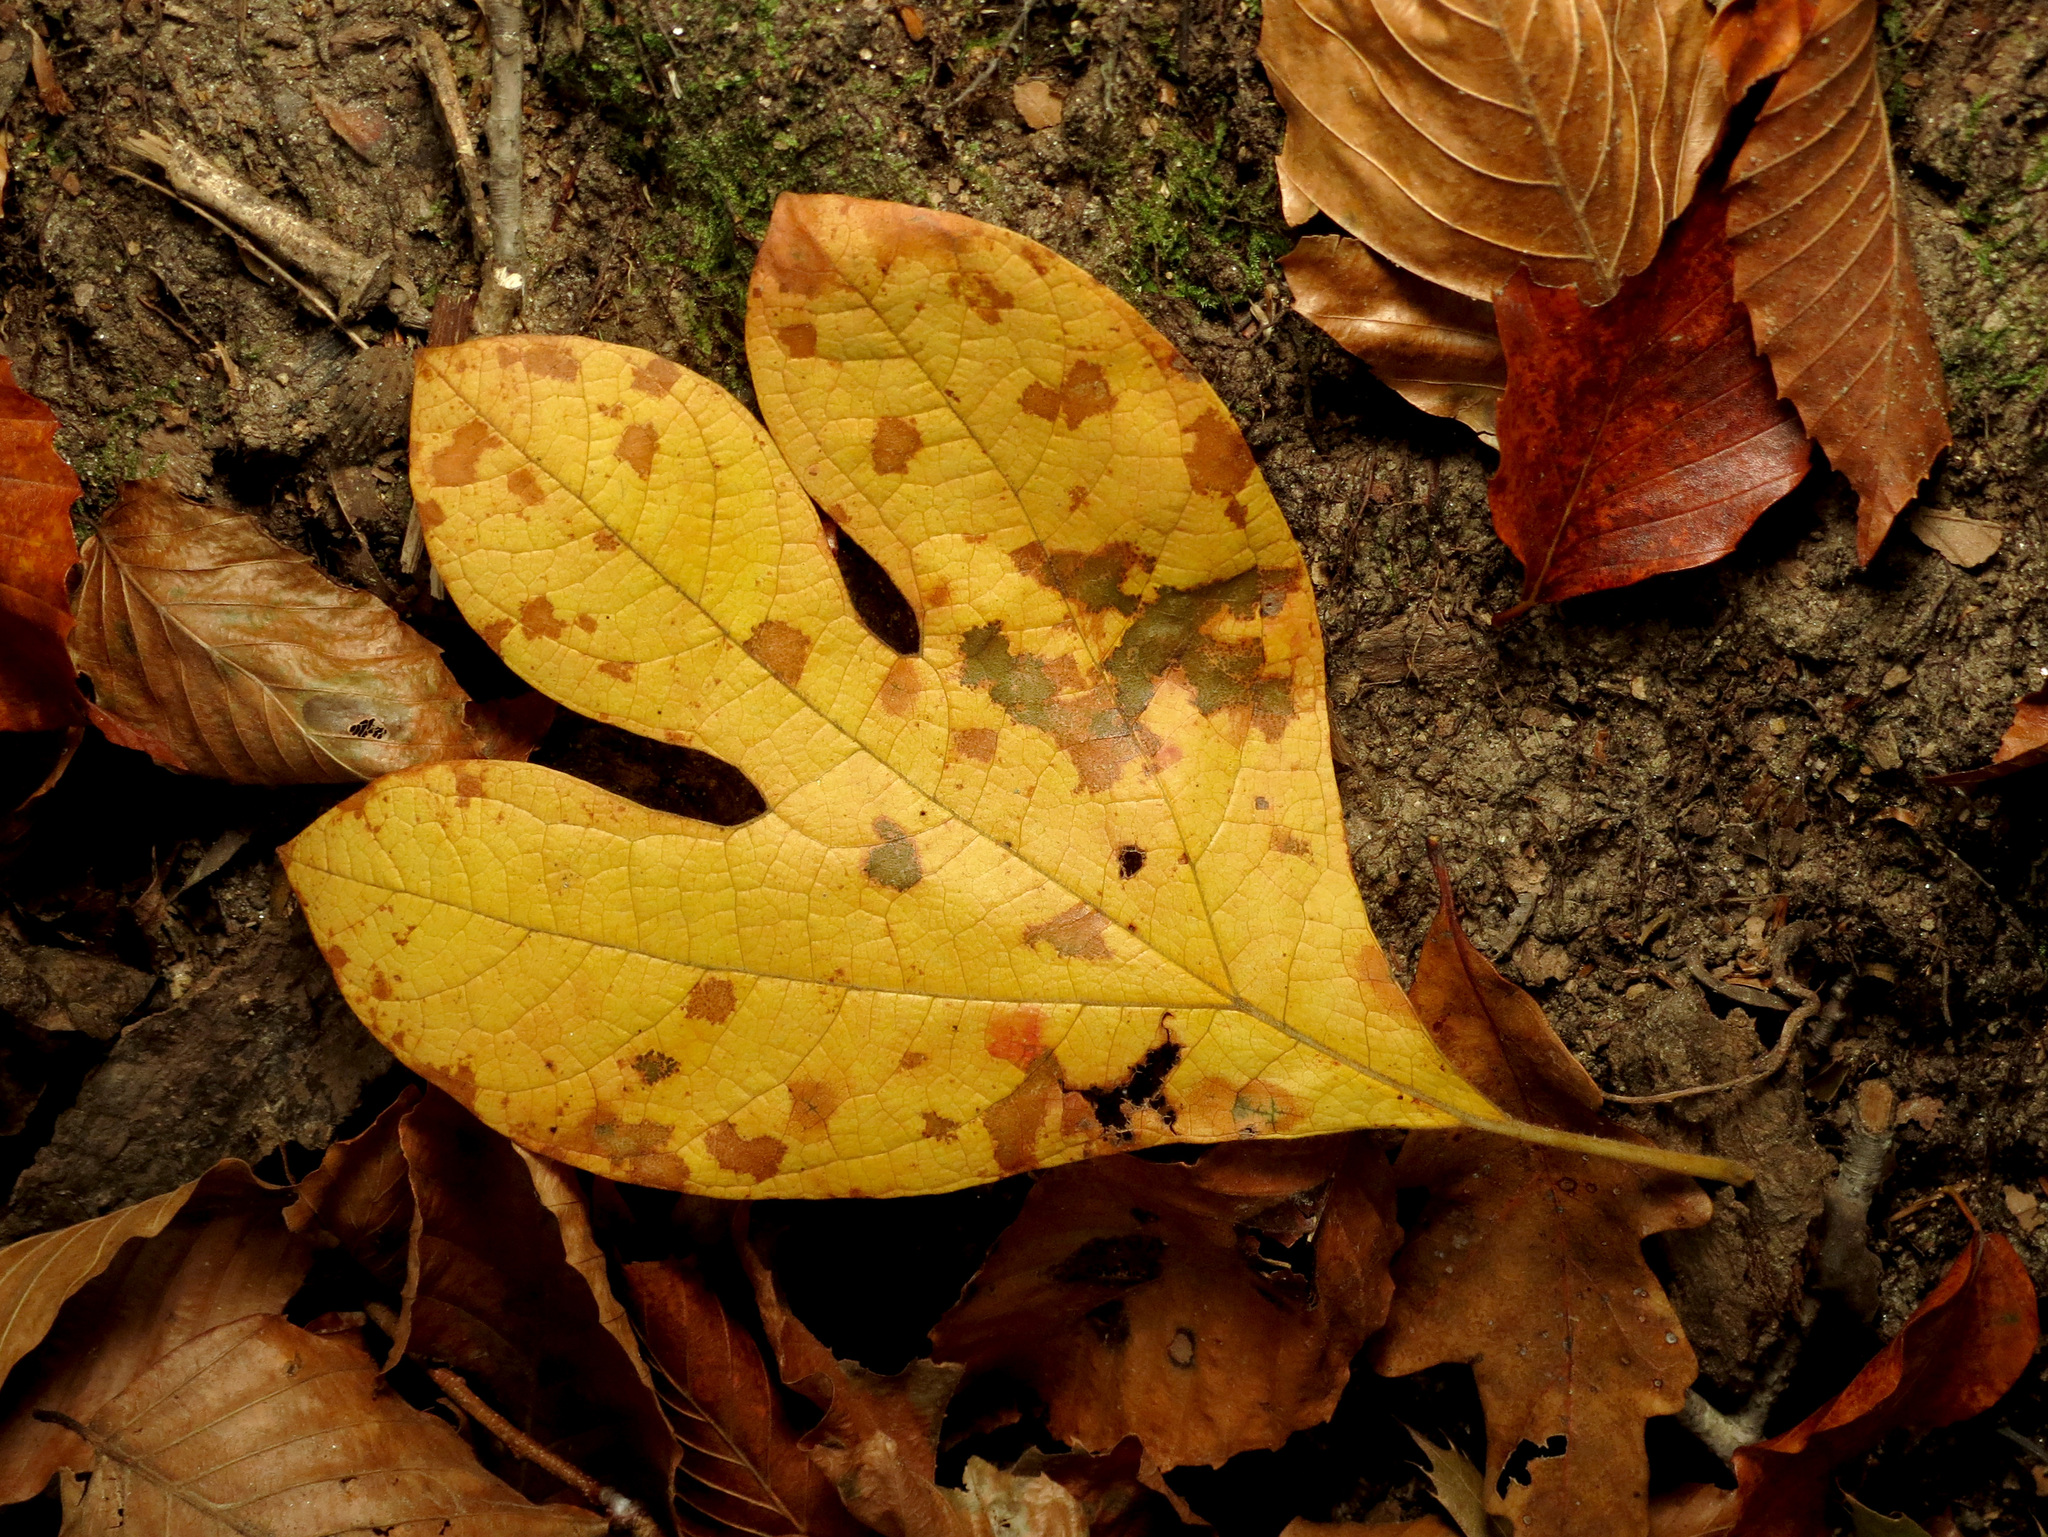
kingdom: Plantae
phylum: Tracheophyta
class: Magnoliopsida
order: Laurales
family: Lauraceae
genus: Sassafras
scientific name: Sassafras albidum
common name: Sassafras
